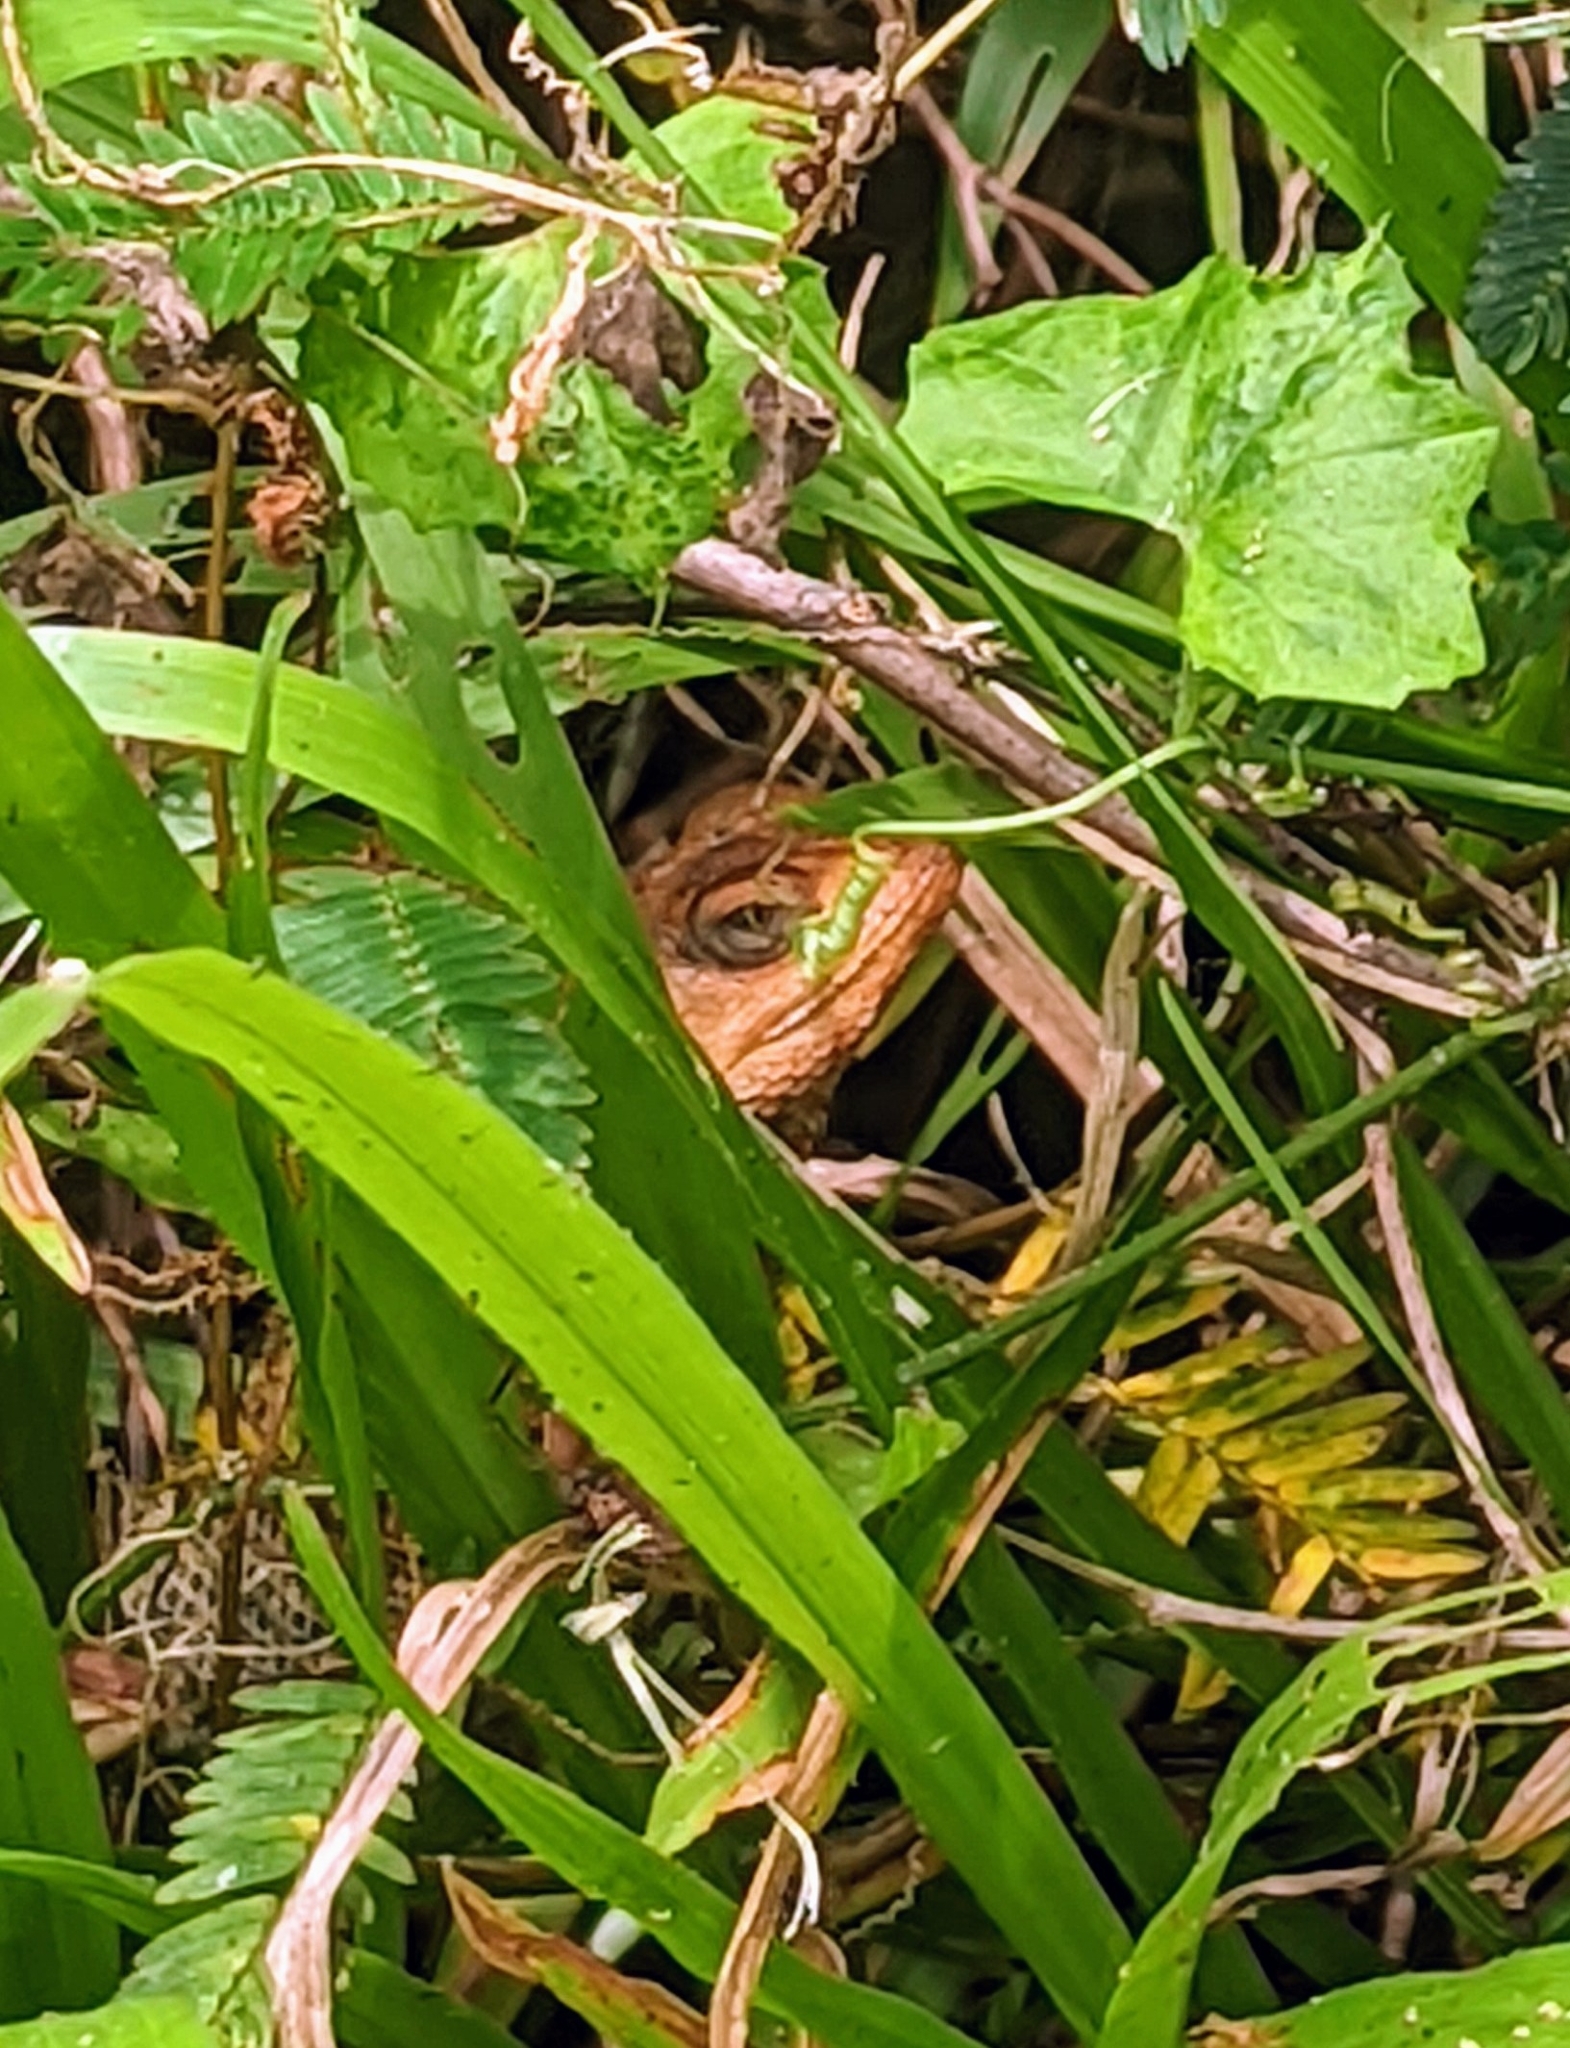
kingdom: Animalia
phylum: Chordata
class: Squamata
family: Agamidae
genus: Calotes
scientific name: Calotes versicolor
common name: Oriental garden lizard
